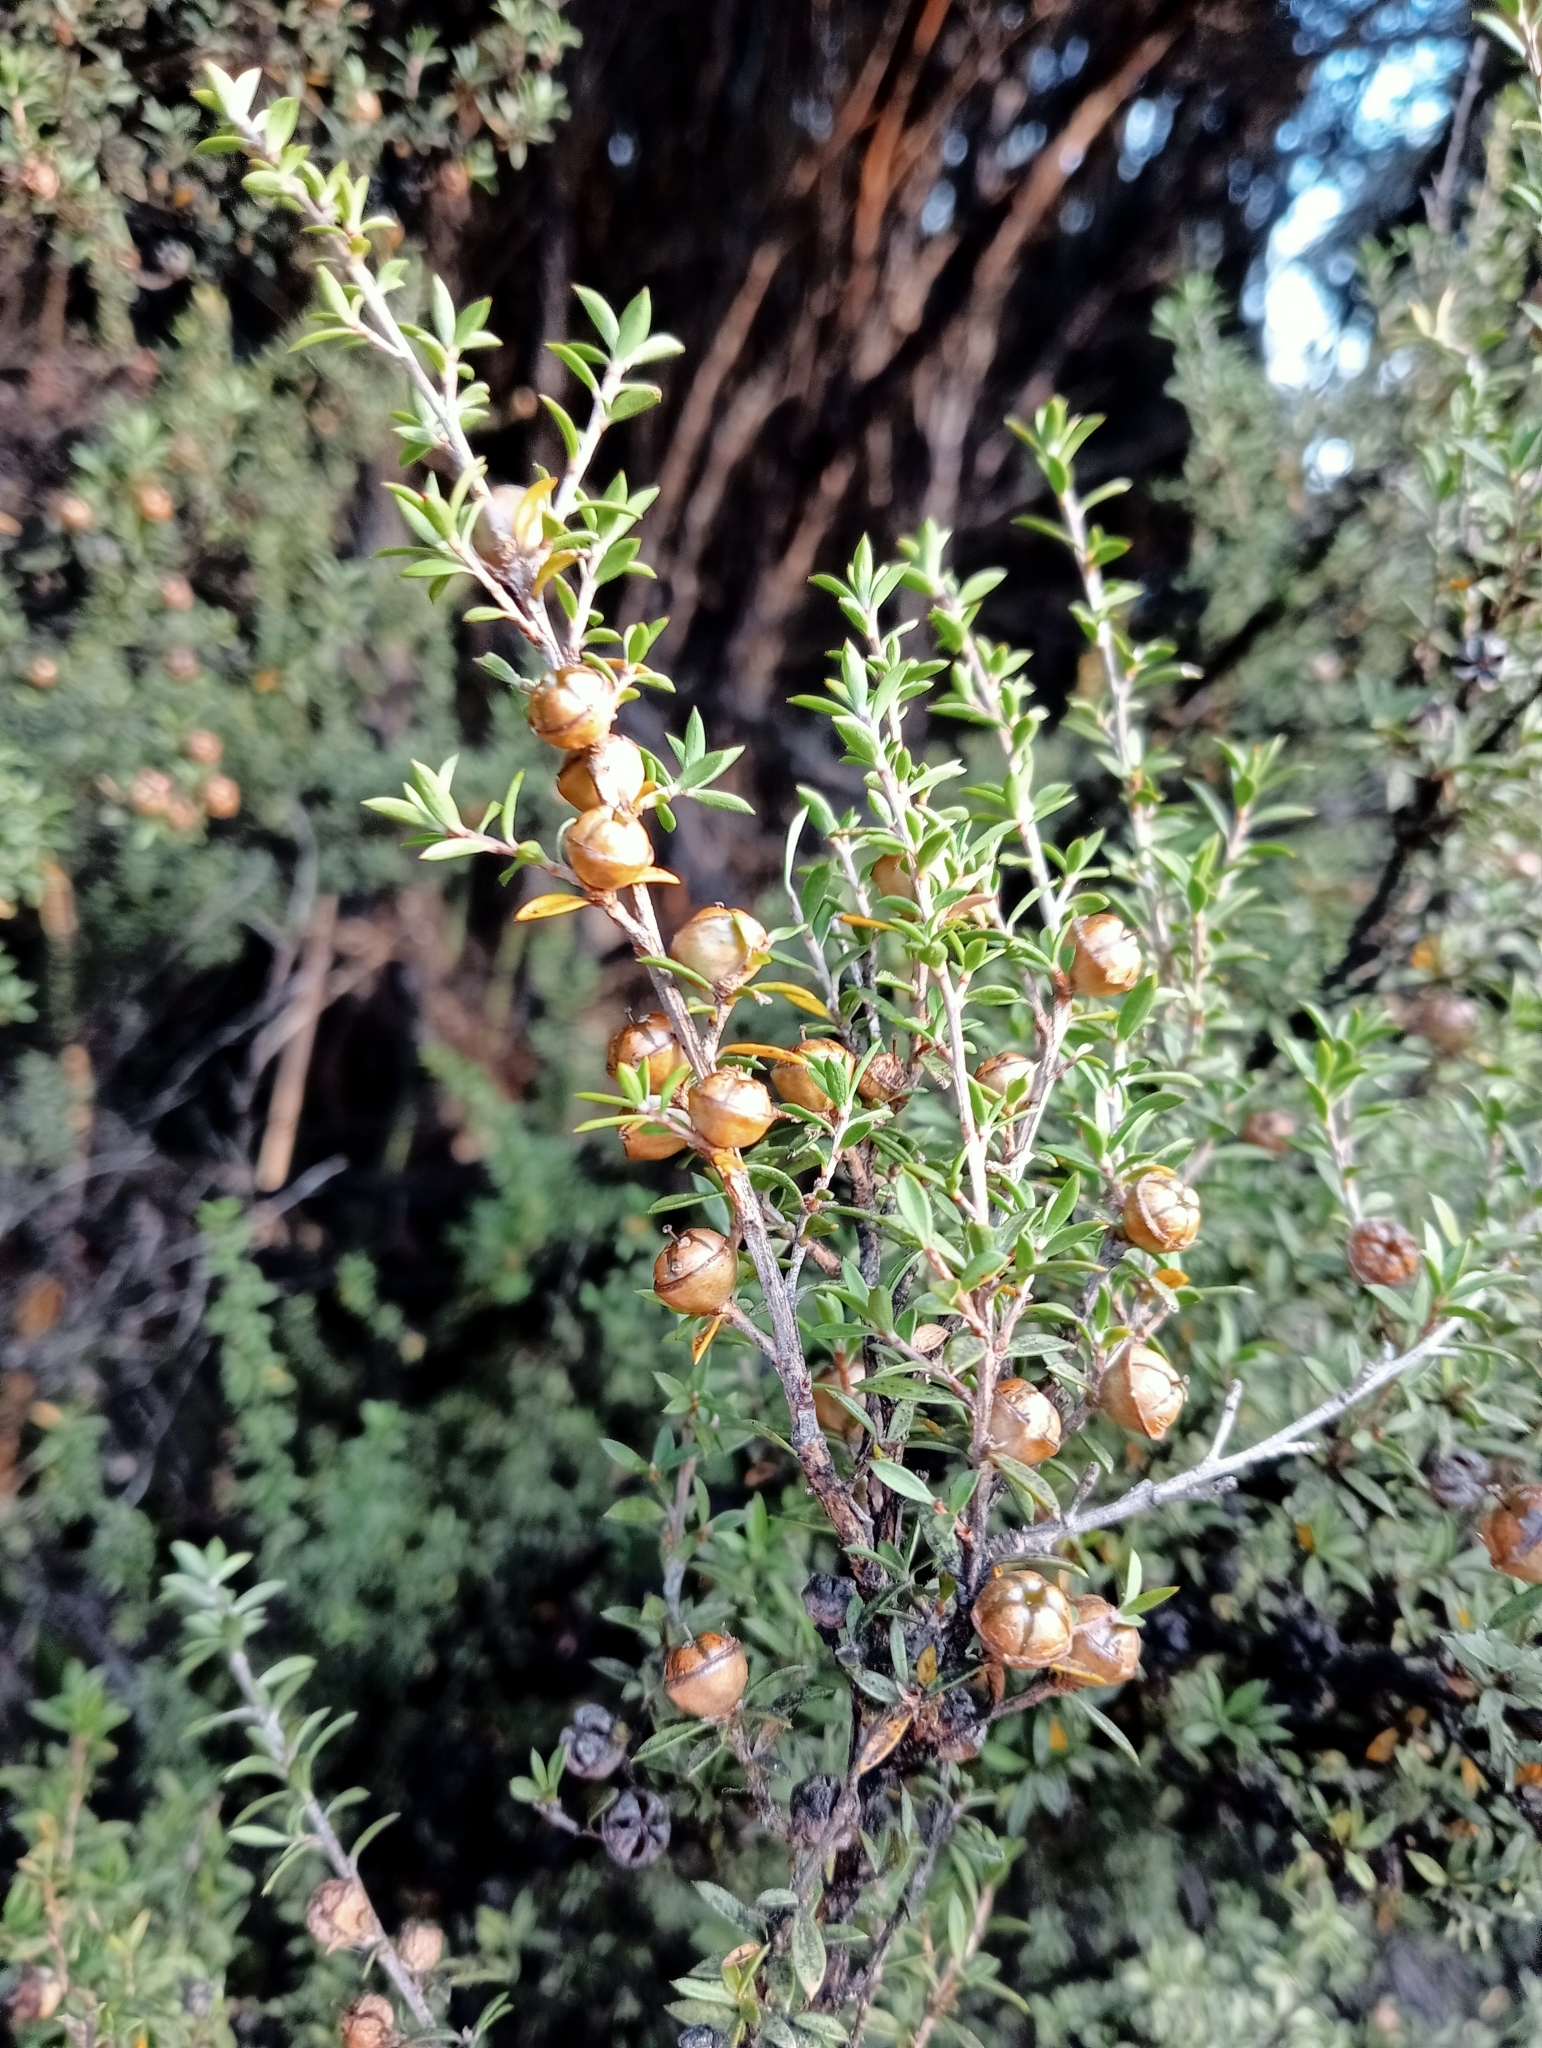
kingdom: Plantae
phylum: Tracheophyta
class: Magnoliopsida
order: Myrtales
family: Myrtaceae
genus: Leptospermum
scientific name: Leptospermum scoparium
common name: Broom tea-tree
